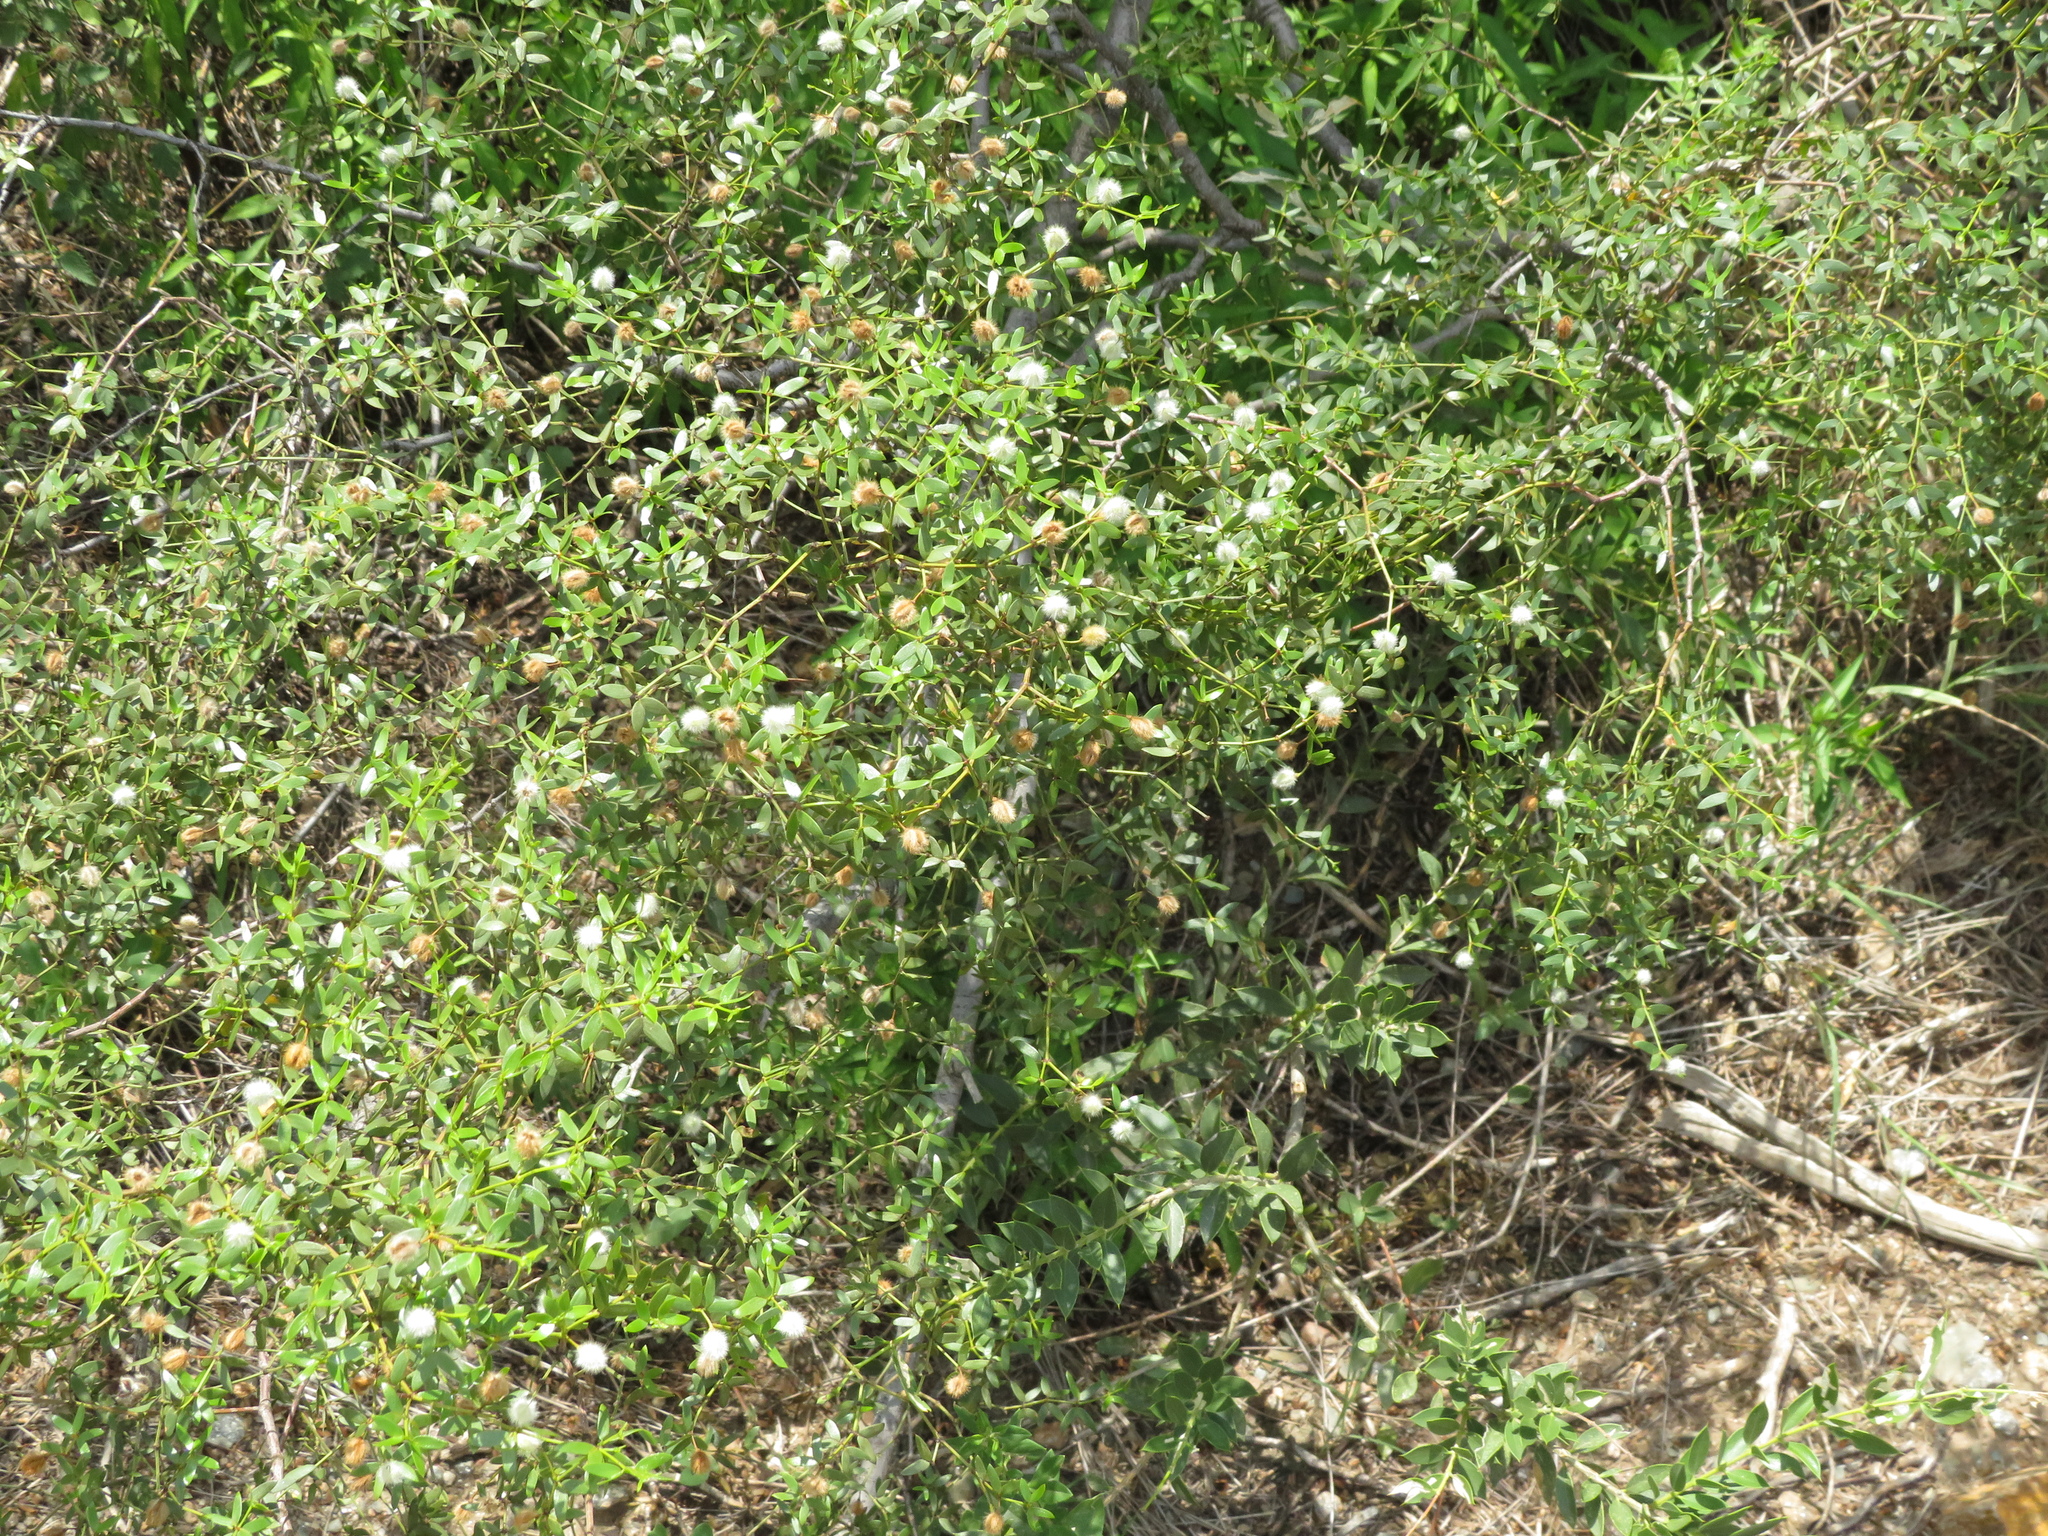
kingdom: Plantae
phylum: Tracheophyta
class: Magnoliopsida
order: Zygophyllales
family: Zygophyllaceae
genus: Larrea
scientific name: Larrea divaricata
